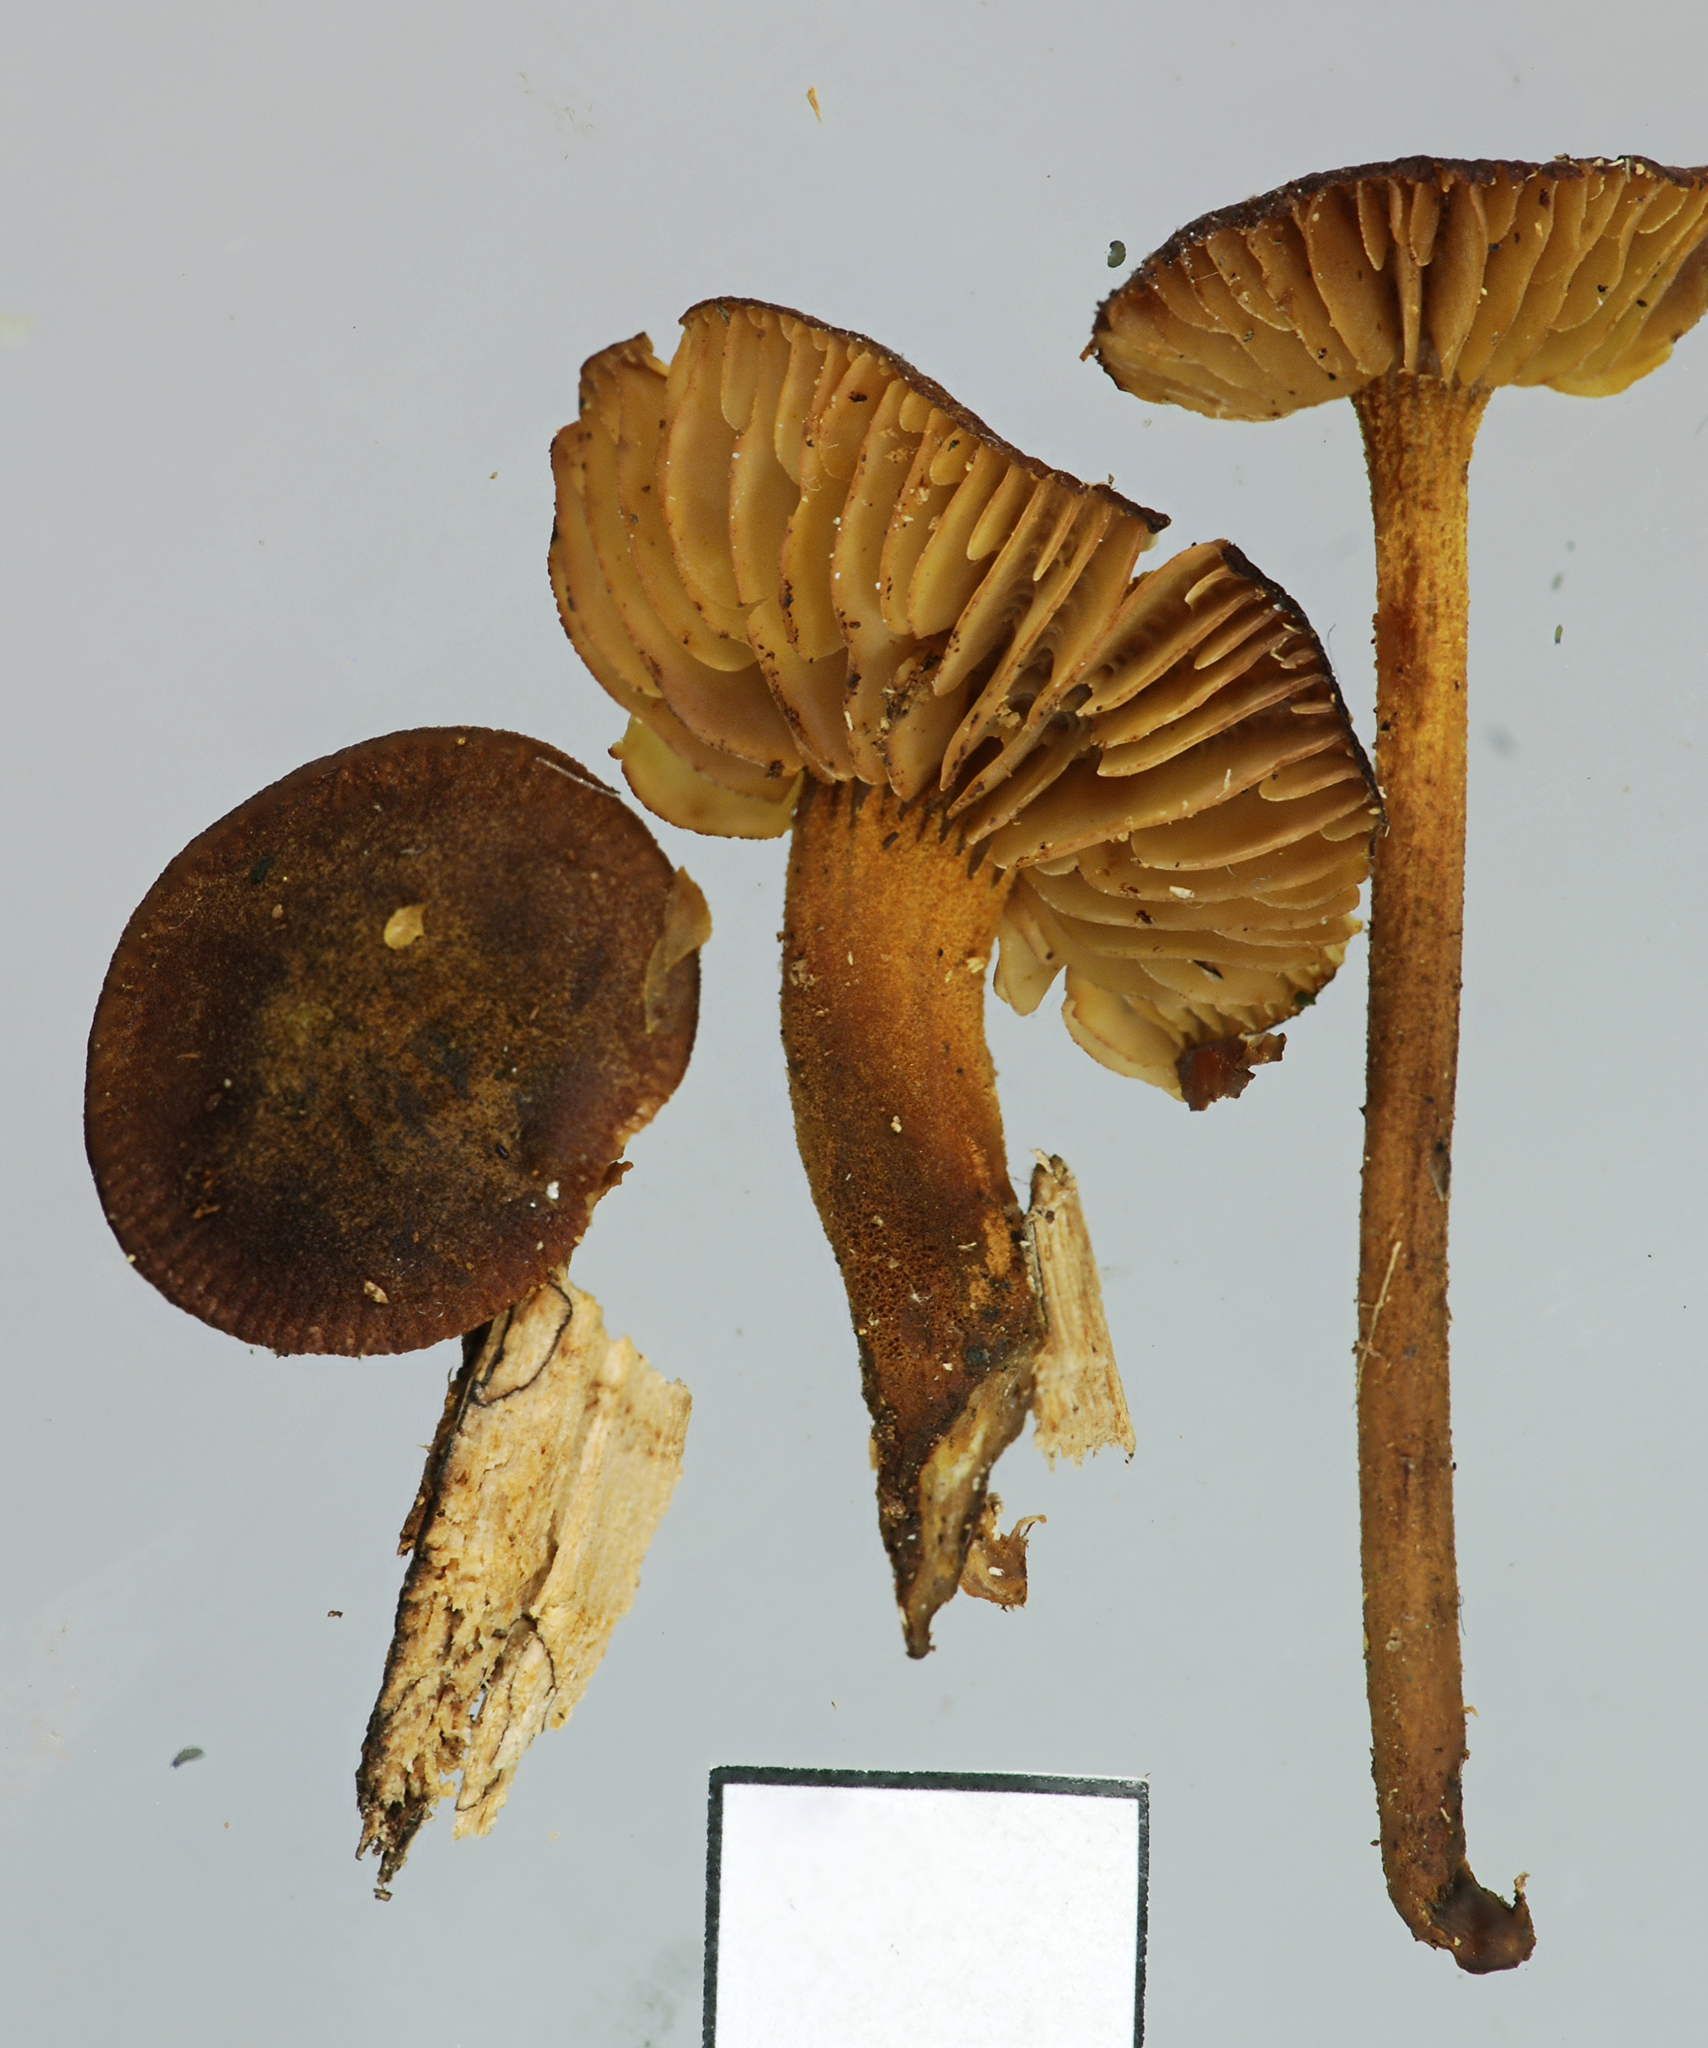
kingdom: Fungi
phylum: Basidiomycota
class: Agaricomycetes
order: Agaricales
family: Mycenaceae
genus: Heimiomyces
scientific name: Heimiomyces atrofulvus
